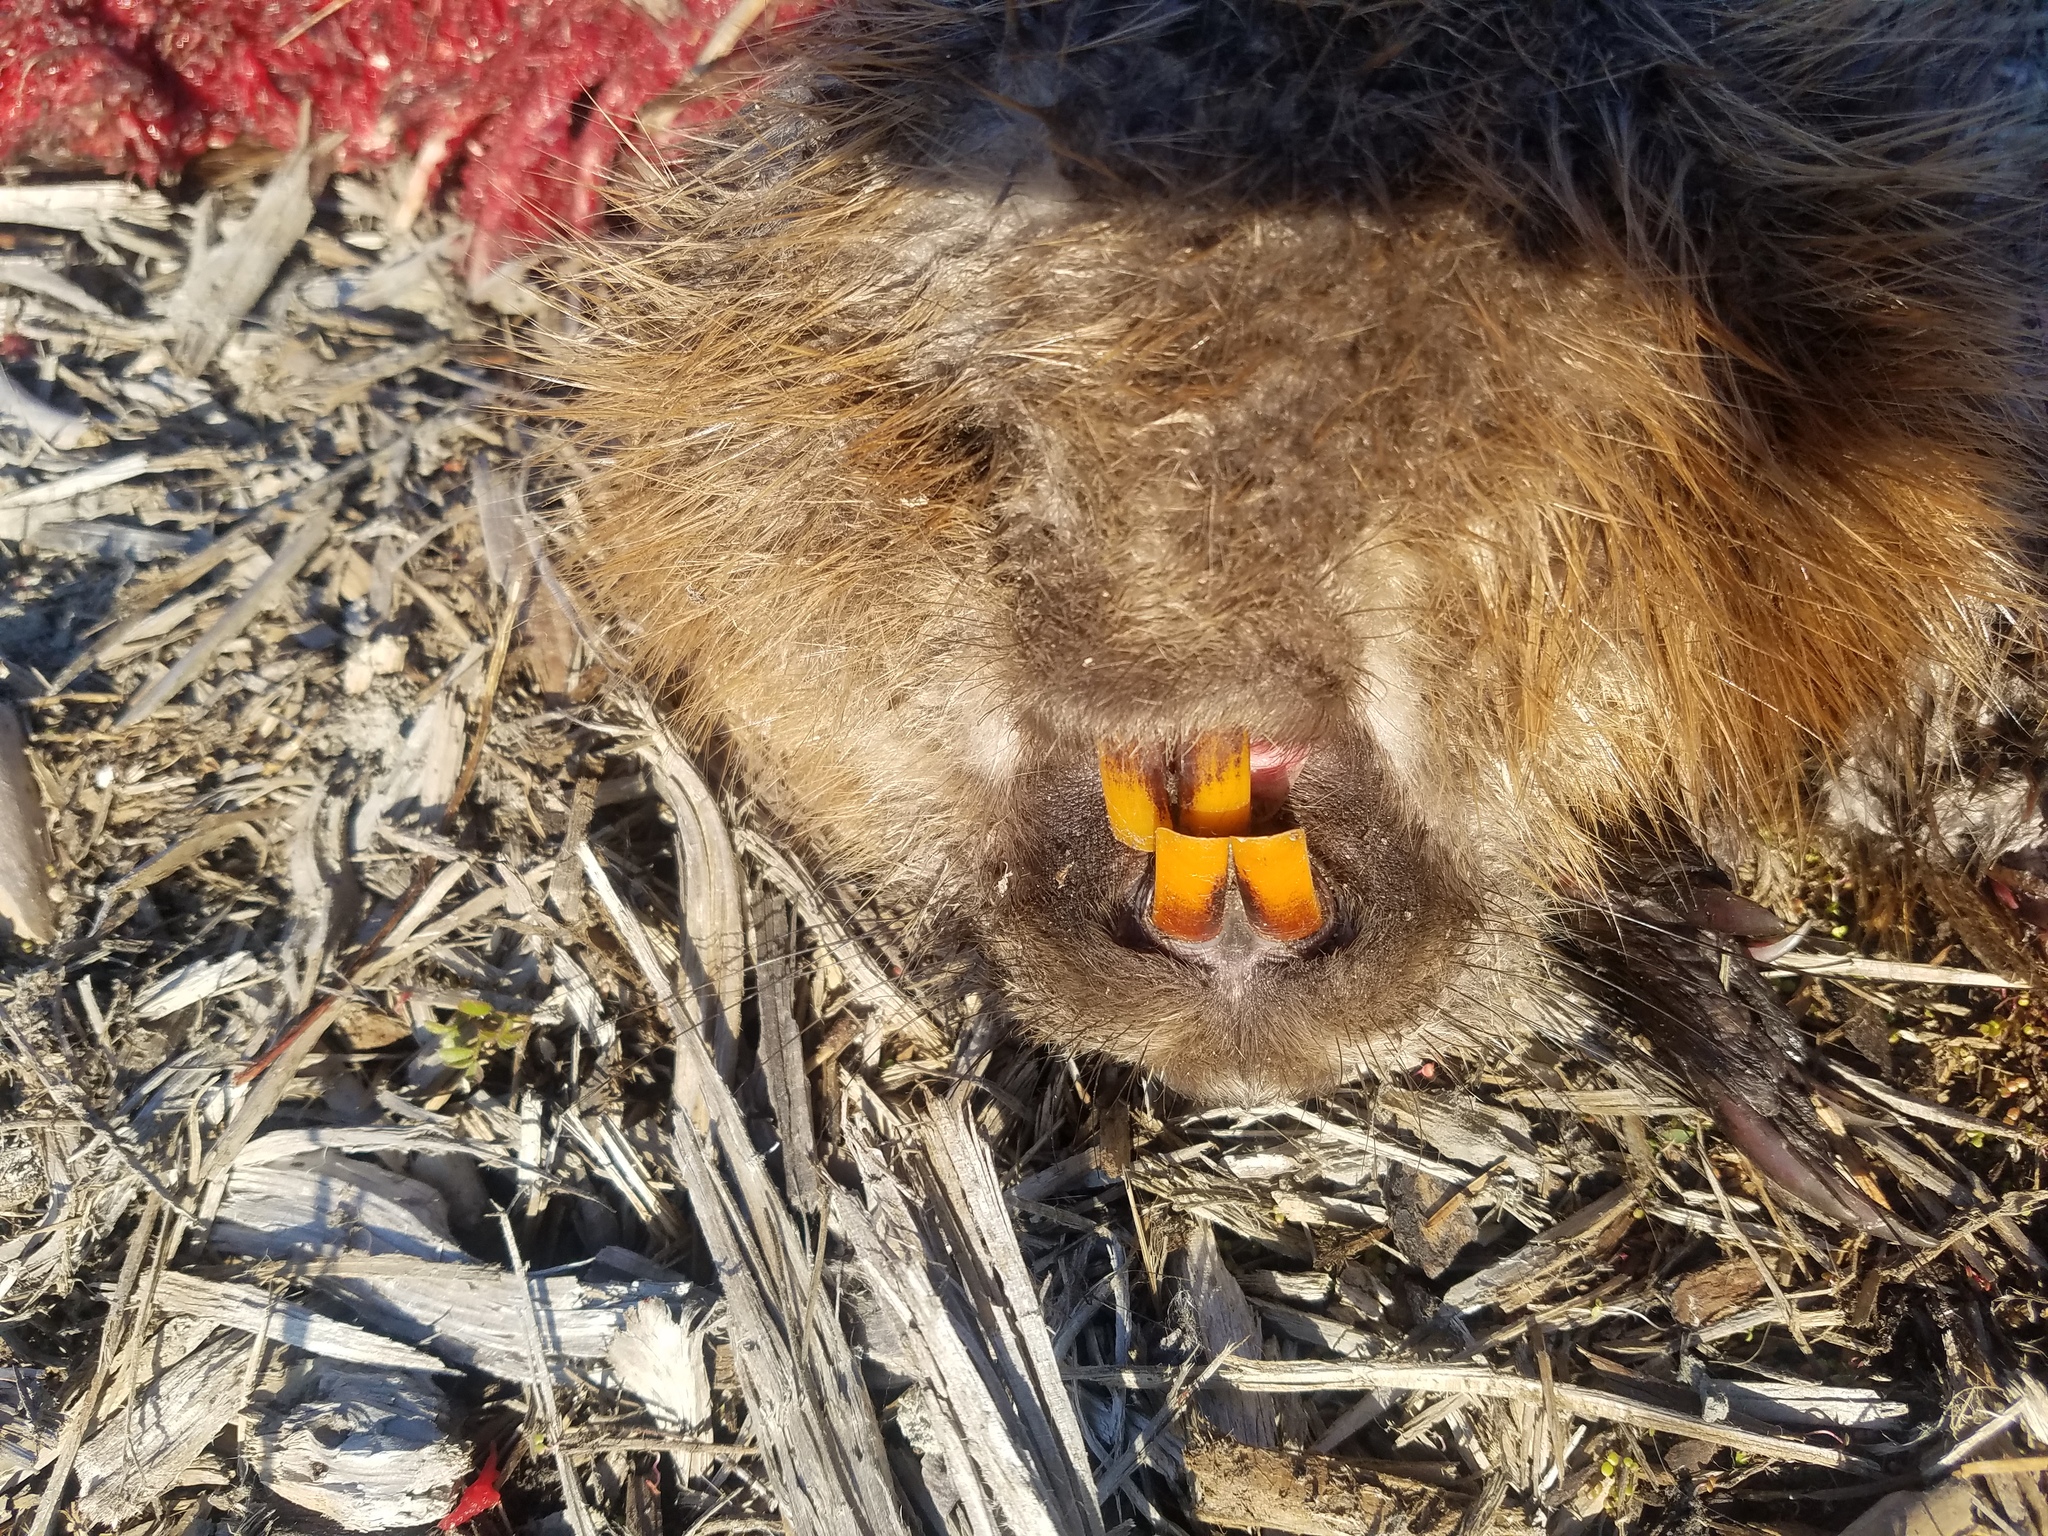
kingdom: Animalia
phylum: Chordata
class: Mammalia
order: Rodentia
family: Castoridae
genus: Castor
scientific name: Castor canadensis
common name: American beaver
